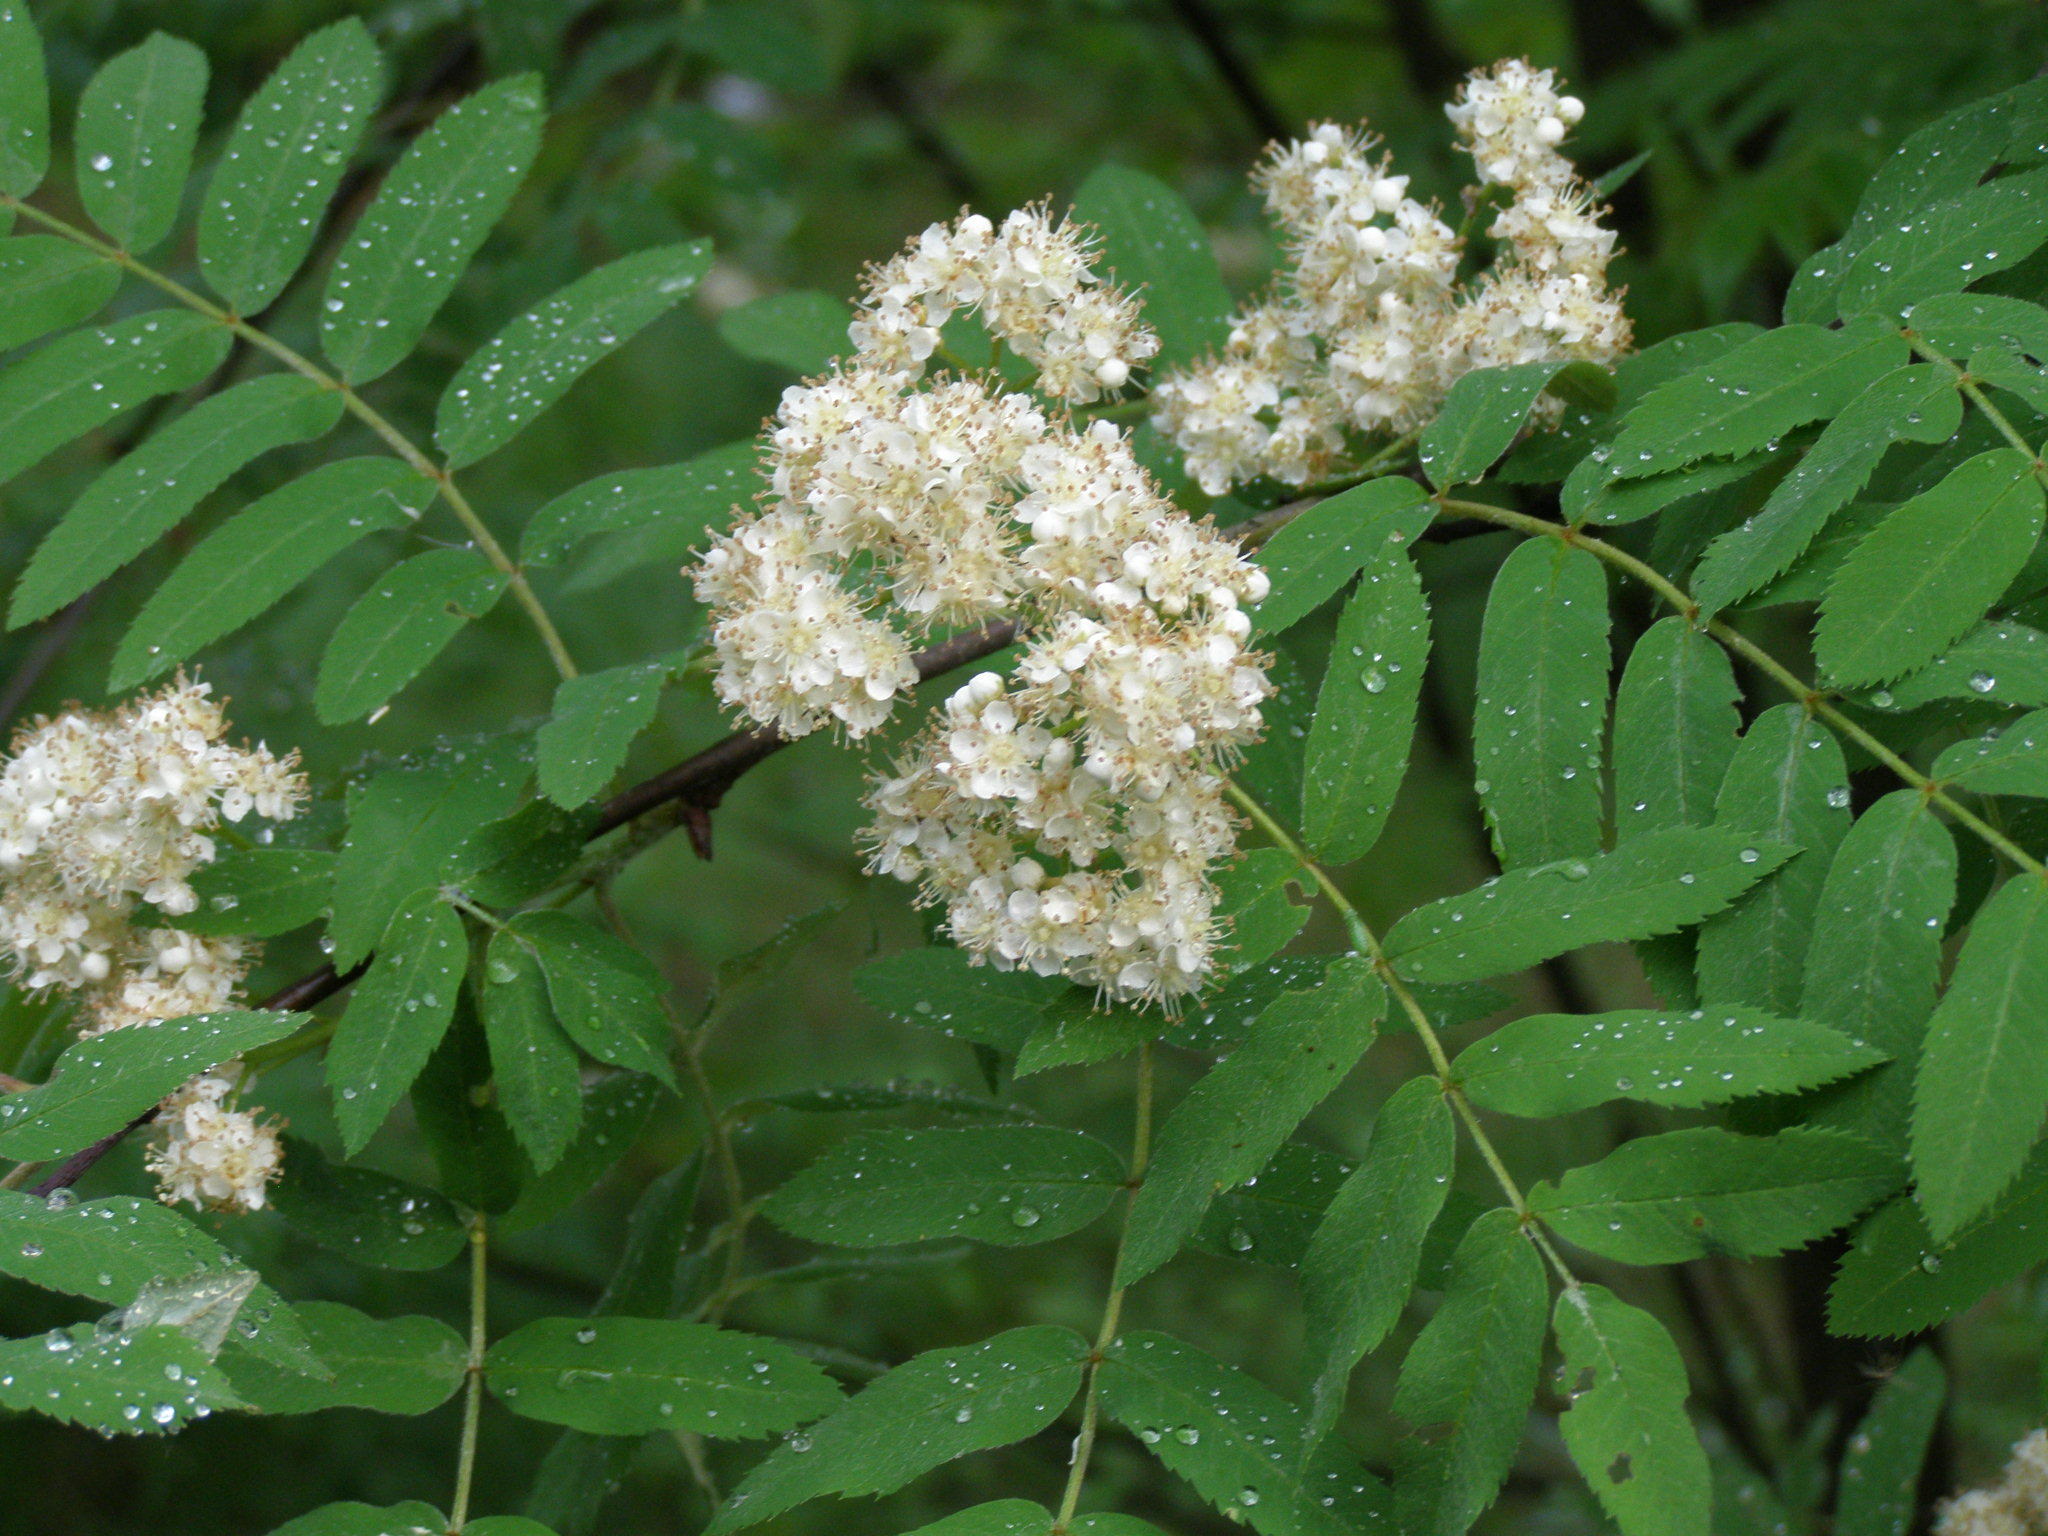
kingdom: Plantae
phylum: Tracheophyta
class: Magnoliopsida
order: Rosales
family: Rosaceae
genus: Sorbus
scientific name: Sorbus aucuparia
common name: Rowan
